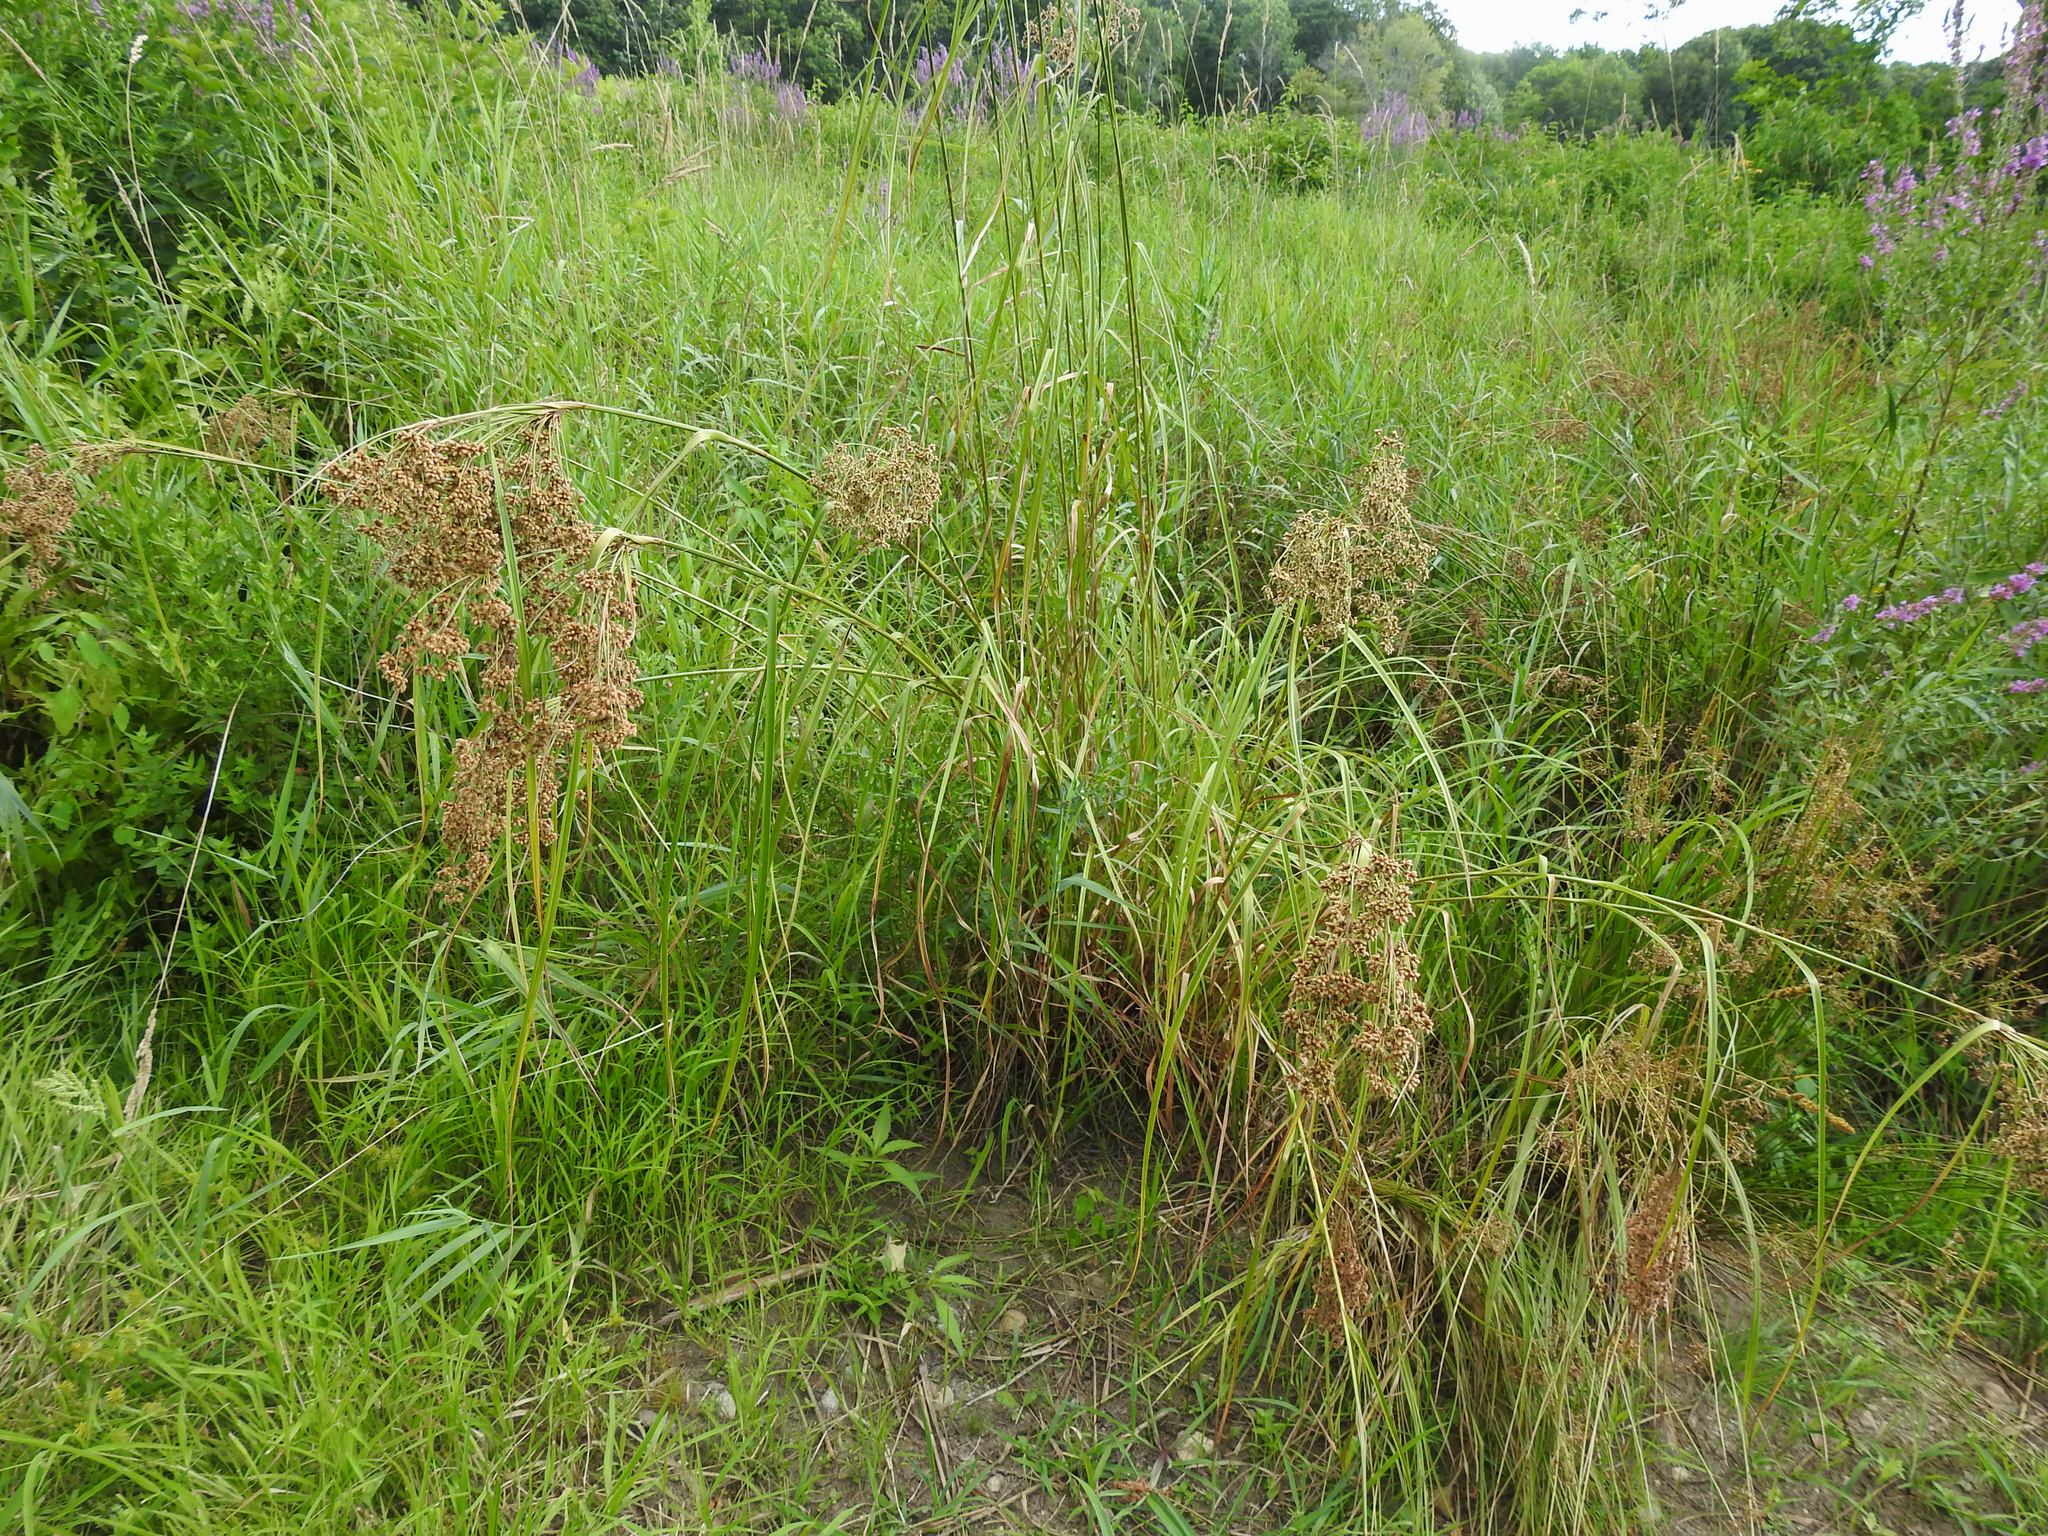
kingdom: Plantae
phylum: Tracheophyta
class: Liliopsida
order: Poales
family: Cyperaceae
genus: Scirpus
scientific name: Scirpus cyperinus
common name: Black-sheathed bulrush
